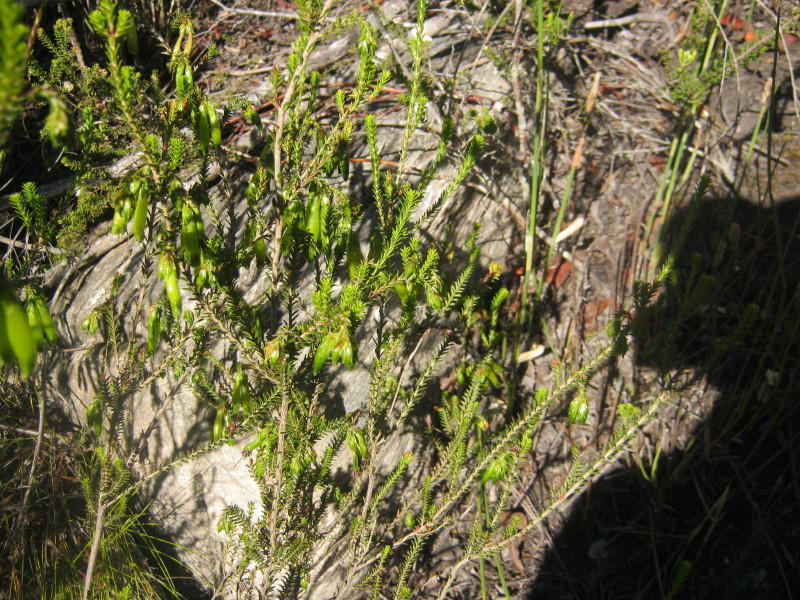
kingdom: Plantae
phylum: Tracheophyta
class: Magnoliopsida
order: Ericales
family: Ericaceae
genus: Erica
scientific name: Erica viridiflora
